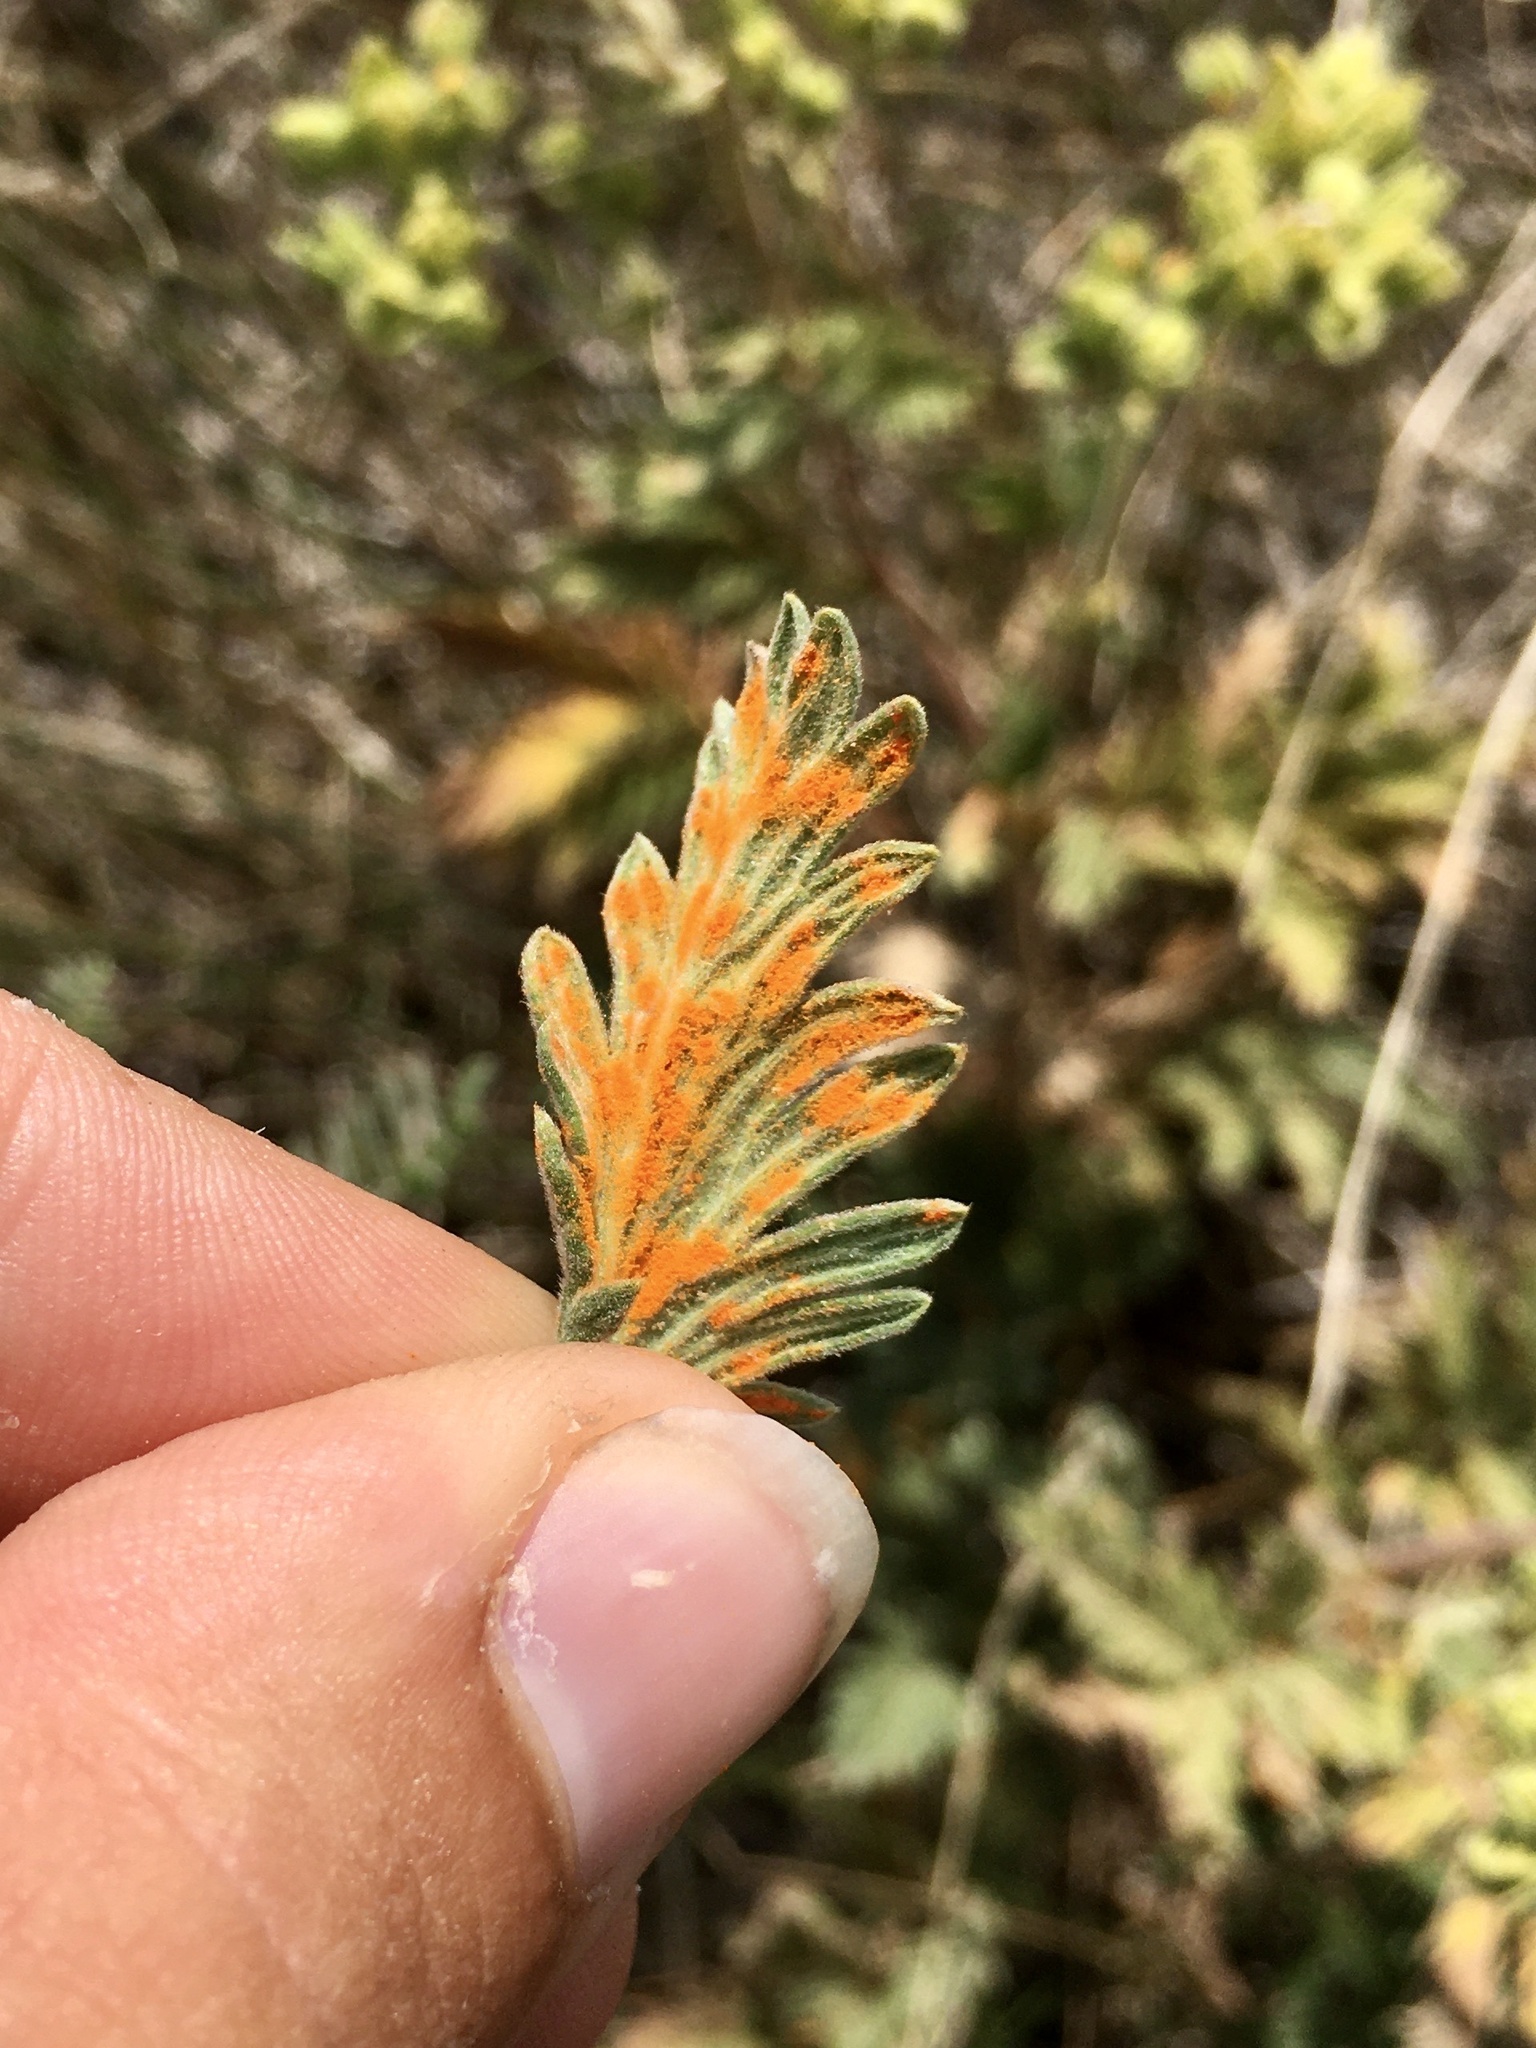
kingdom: Fungi
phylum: Basidiomycota
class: Pucciniomycetes
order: Pucciniales
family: Phragmidiaceae
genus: Phragmidium
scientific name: Phragmidium potentillae
